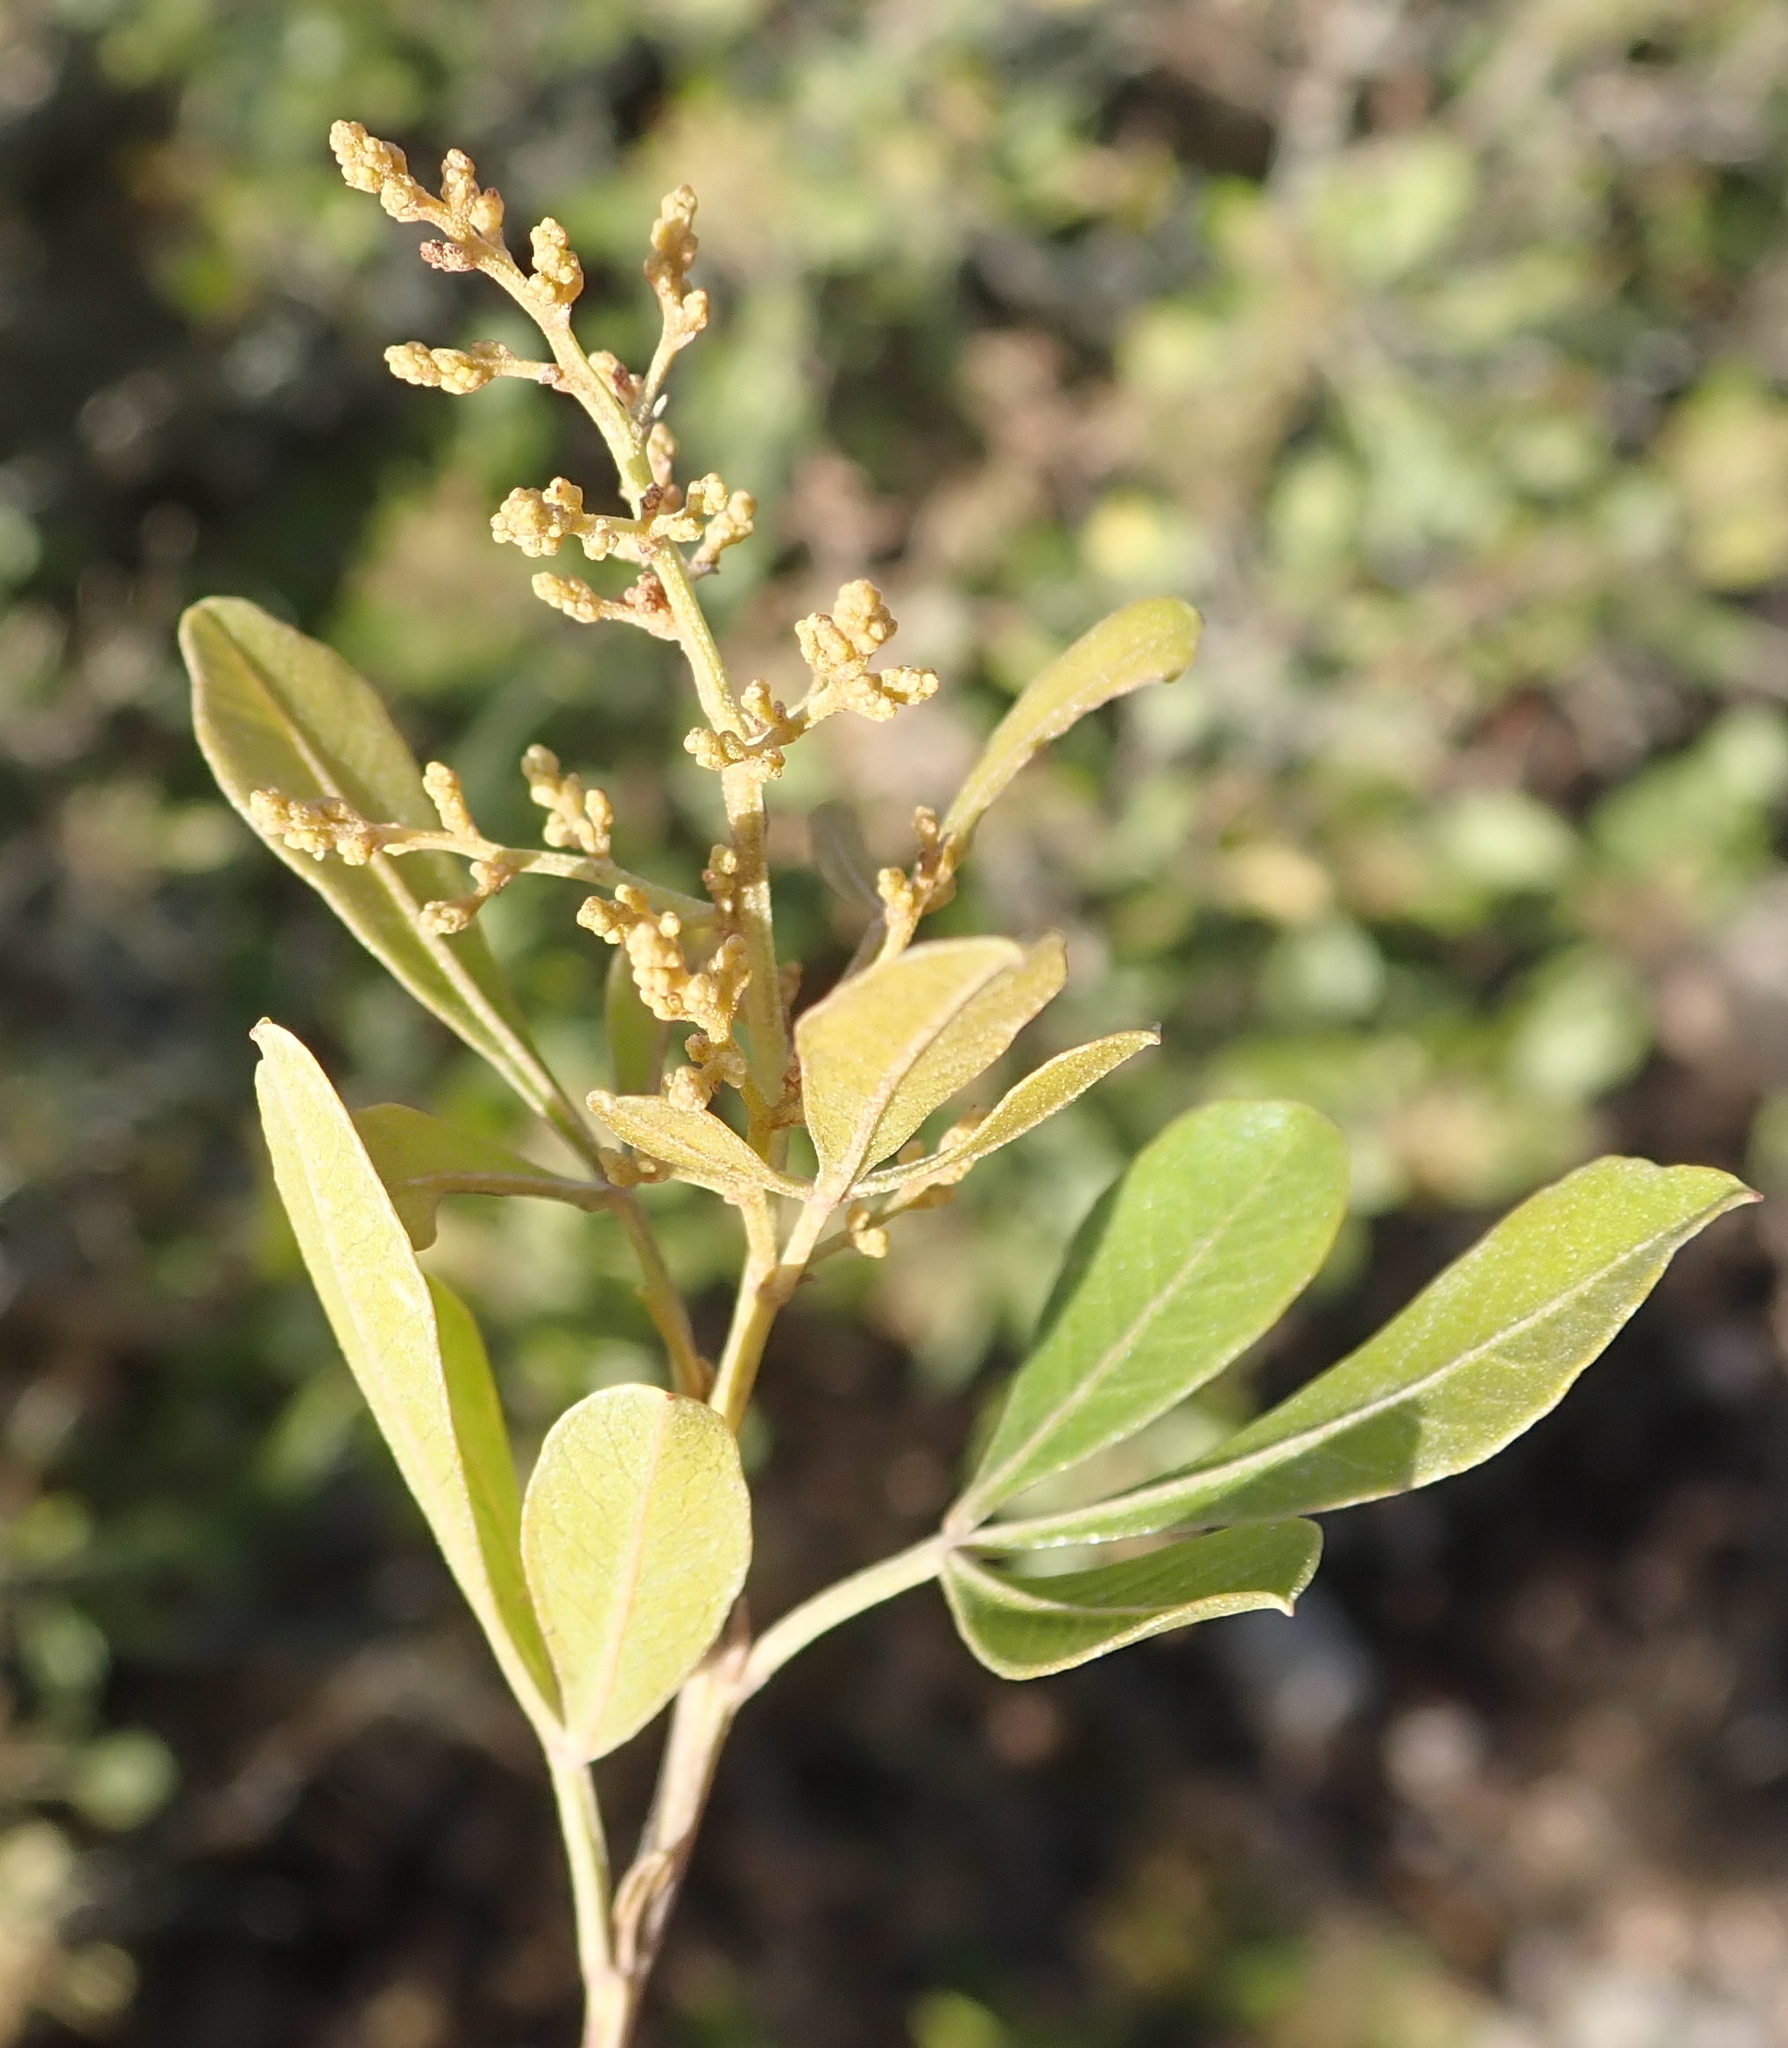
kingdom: Plantae
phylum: Tracheophyta
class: Magnoliopsida
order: Sapindales
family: Anacardiaceae
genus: Searsia
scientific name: Searsia pallens
